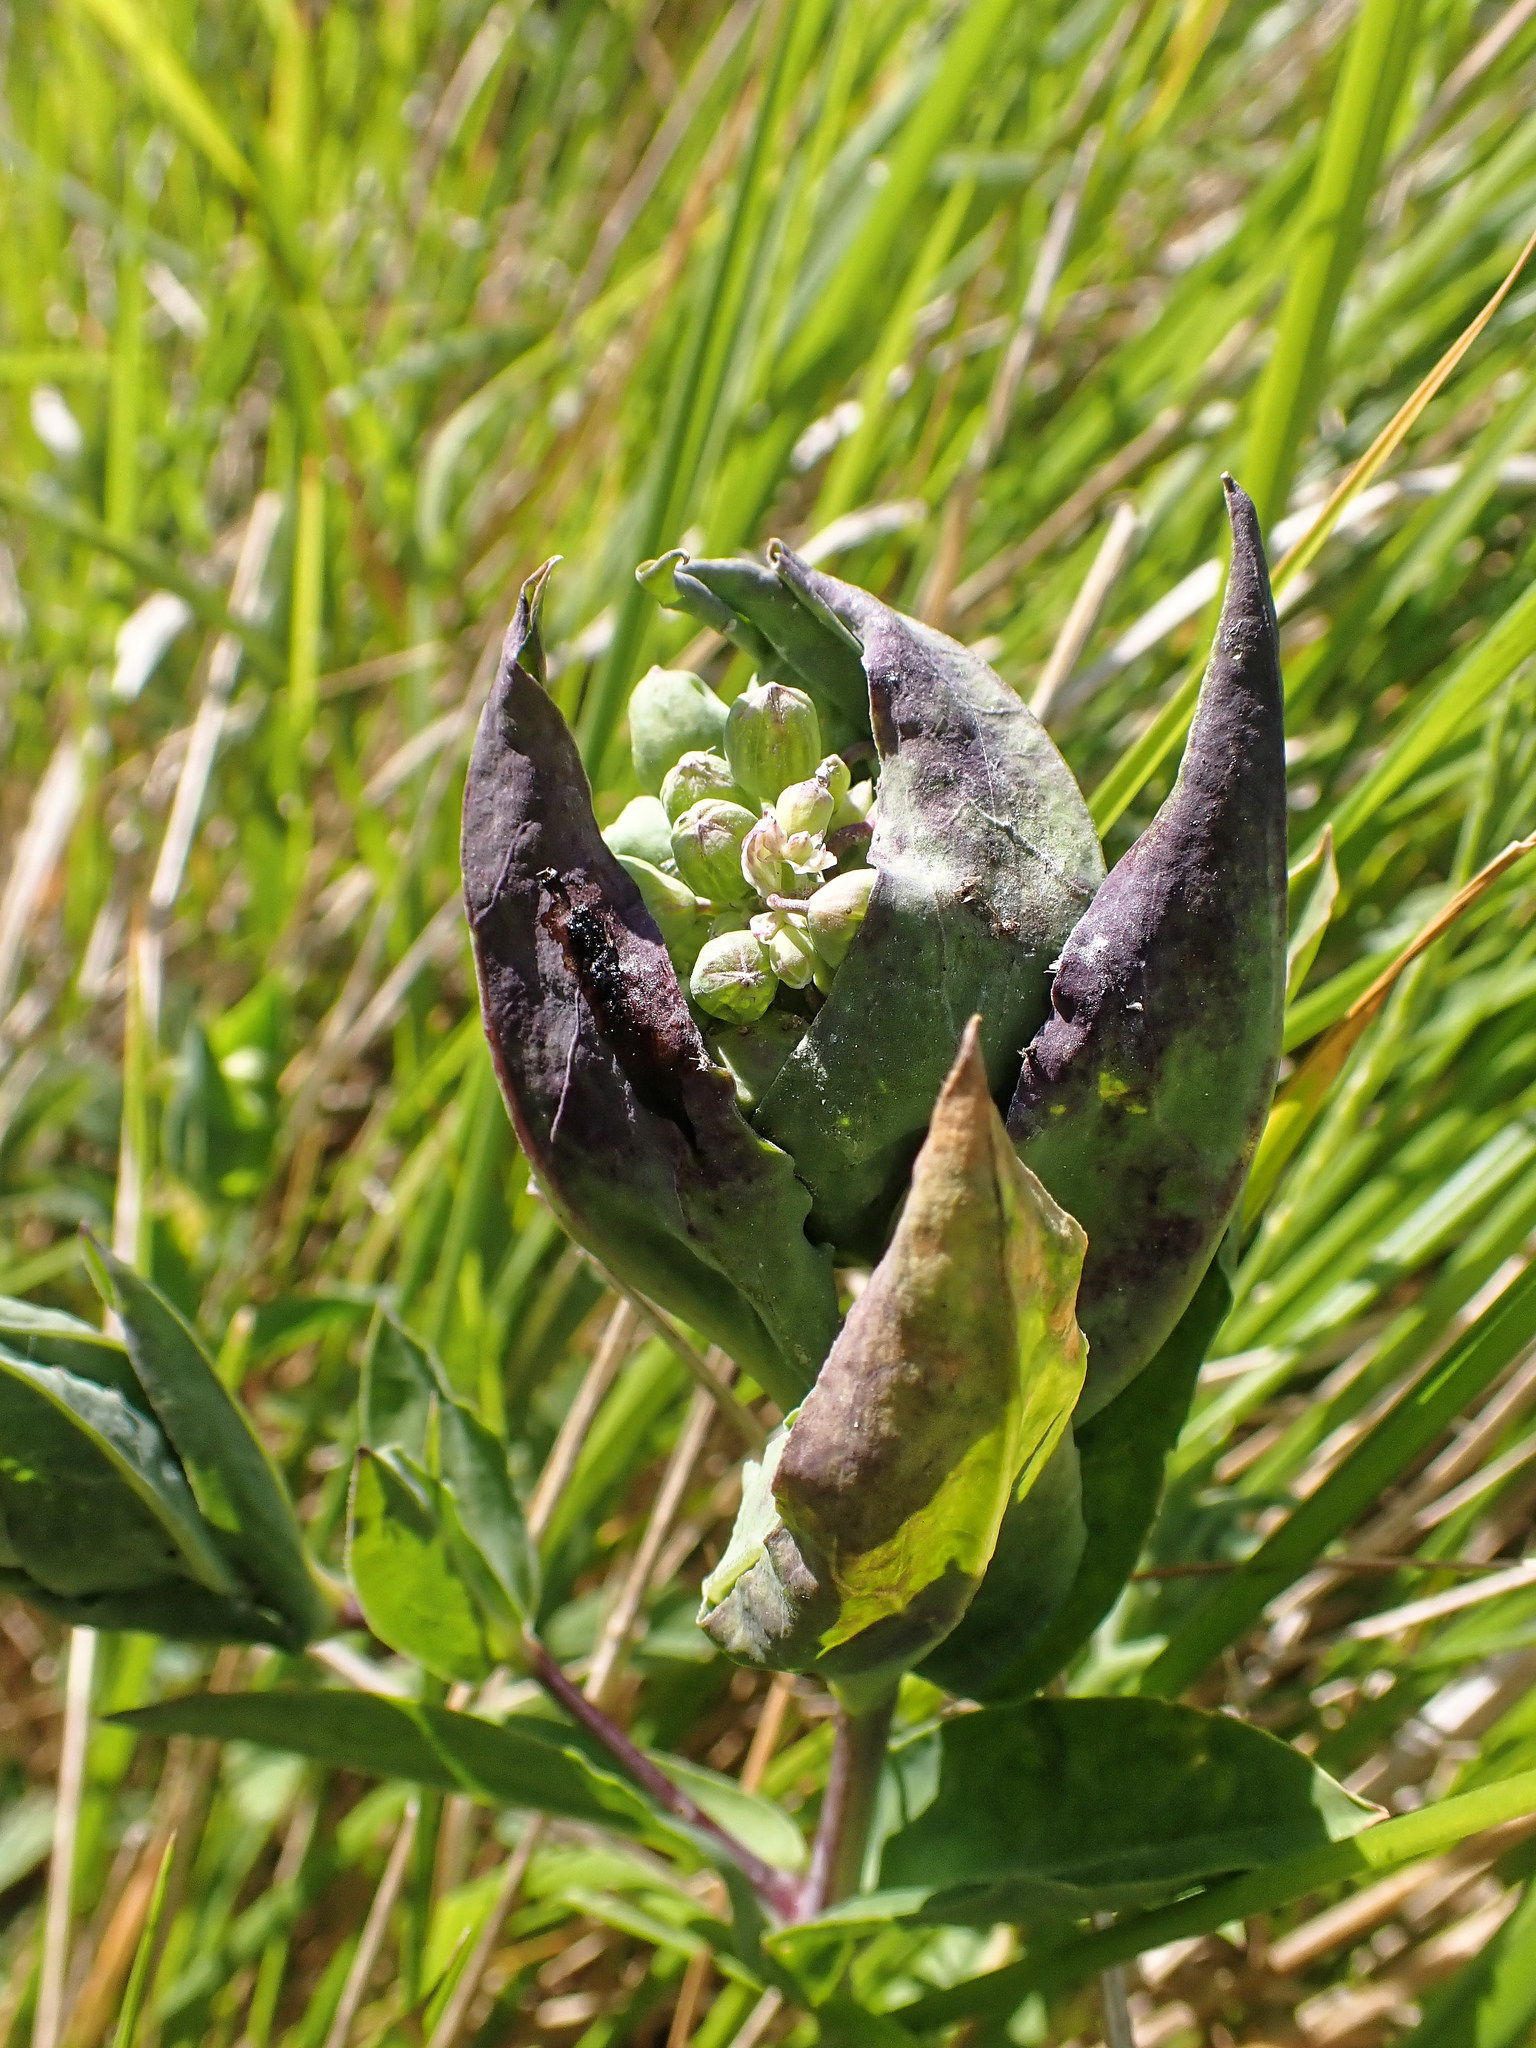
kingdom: Plantae
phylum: Tracheophyta
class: Magnoliopsida
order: Caryophyllales
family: Caryophyllaceae
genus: Silene
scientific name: Silene vulgaris
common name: Bladder campion
